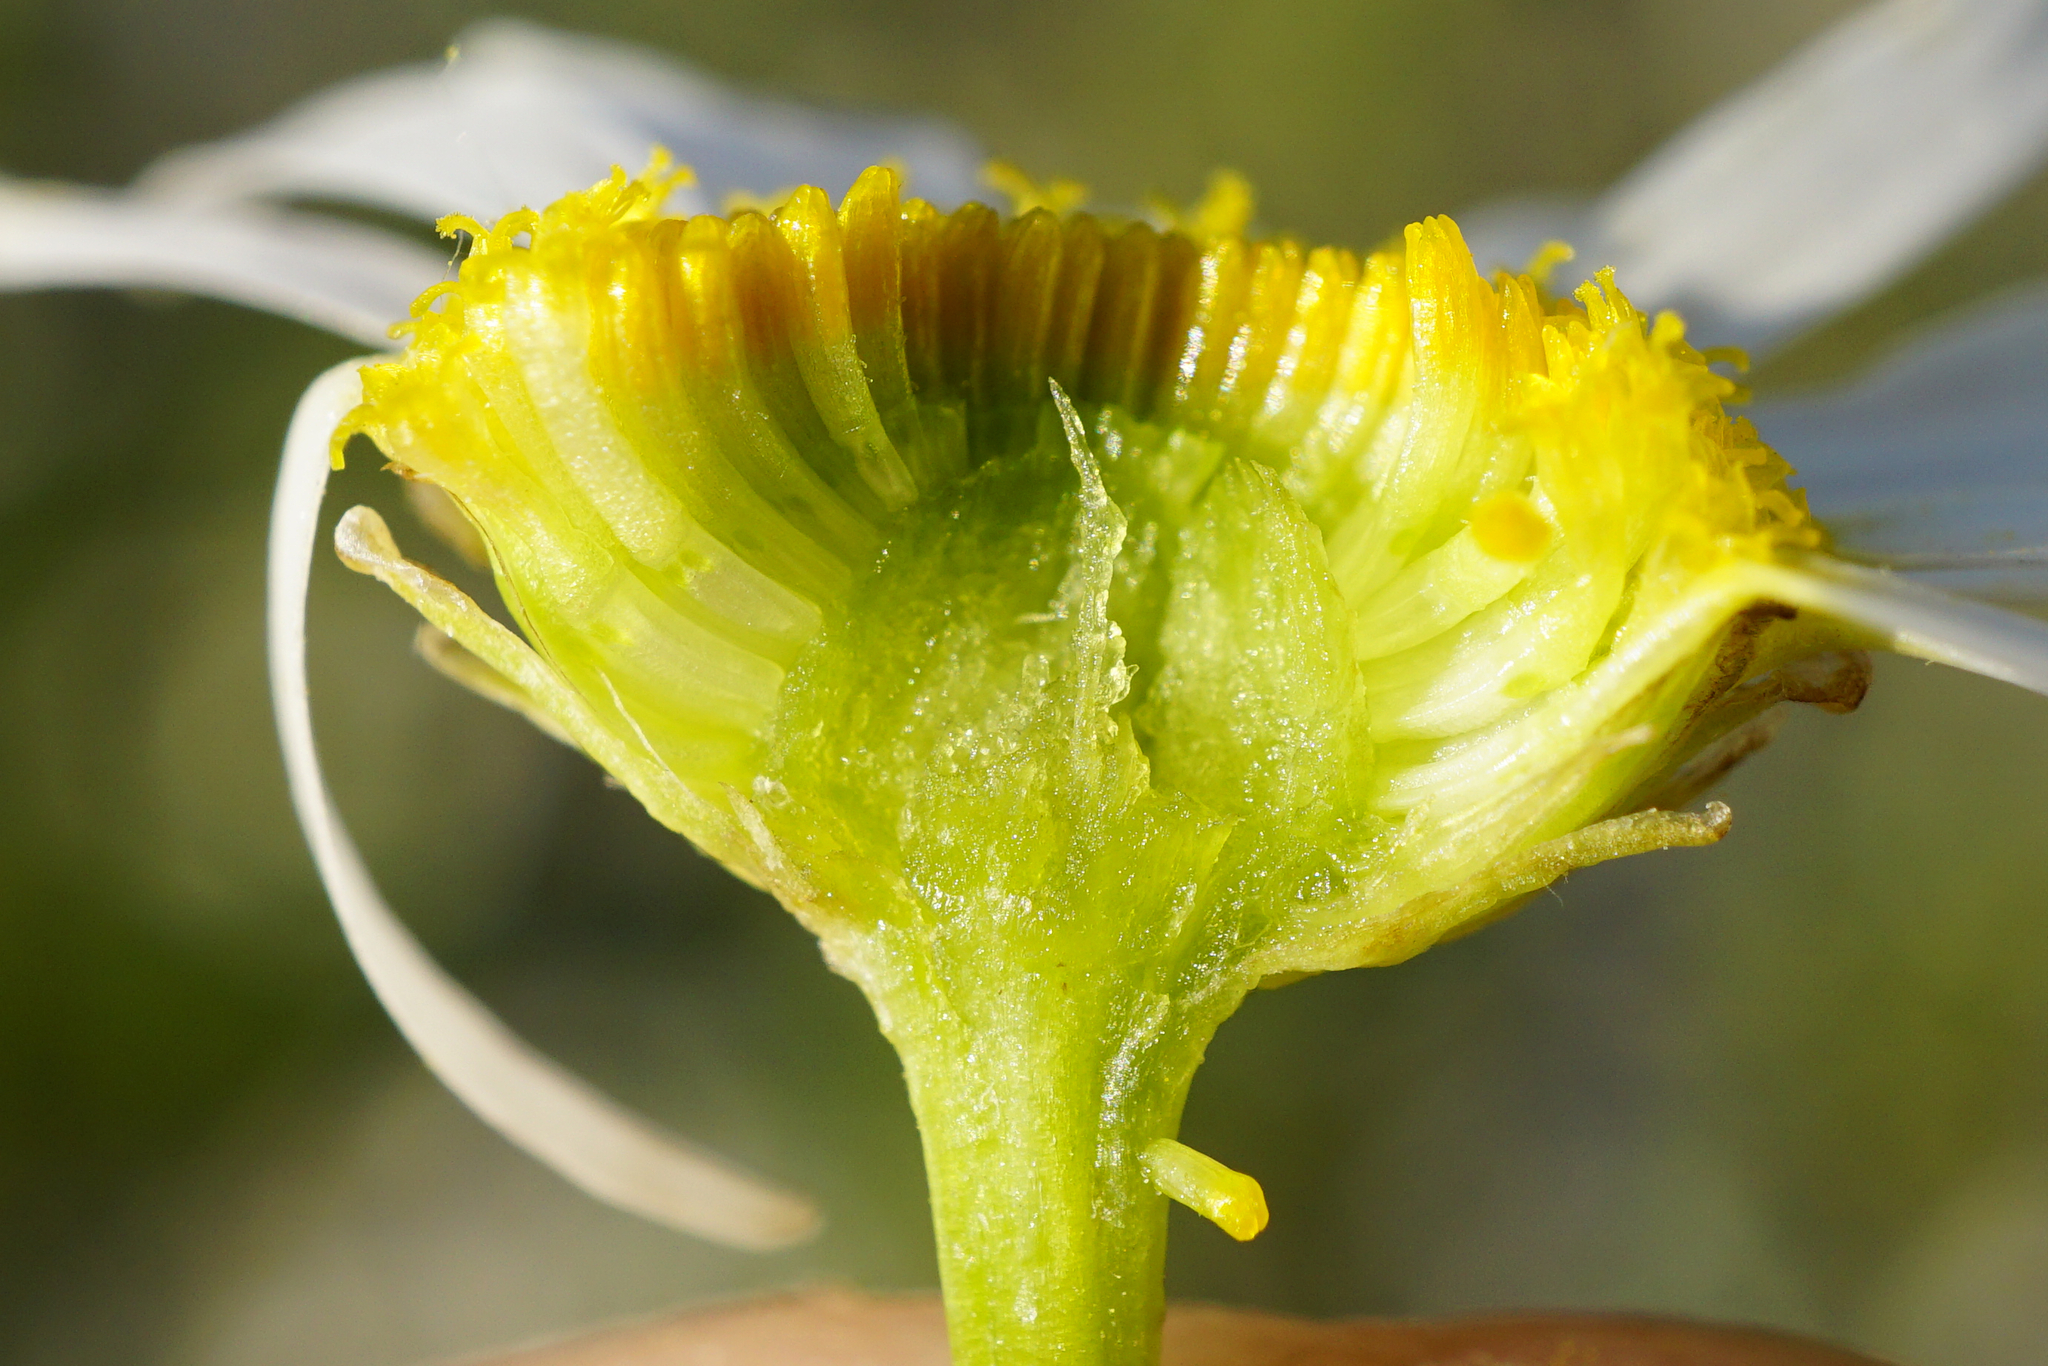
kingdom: Plantae
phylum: Tracheophyta
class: Magnoliopsida
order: Asterales
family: Asteraceae
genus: Tripleurospermum
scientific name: Tripleurospermum inodorum
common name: Scentless mayweed
